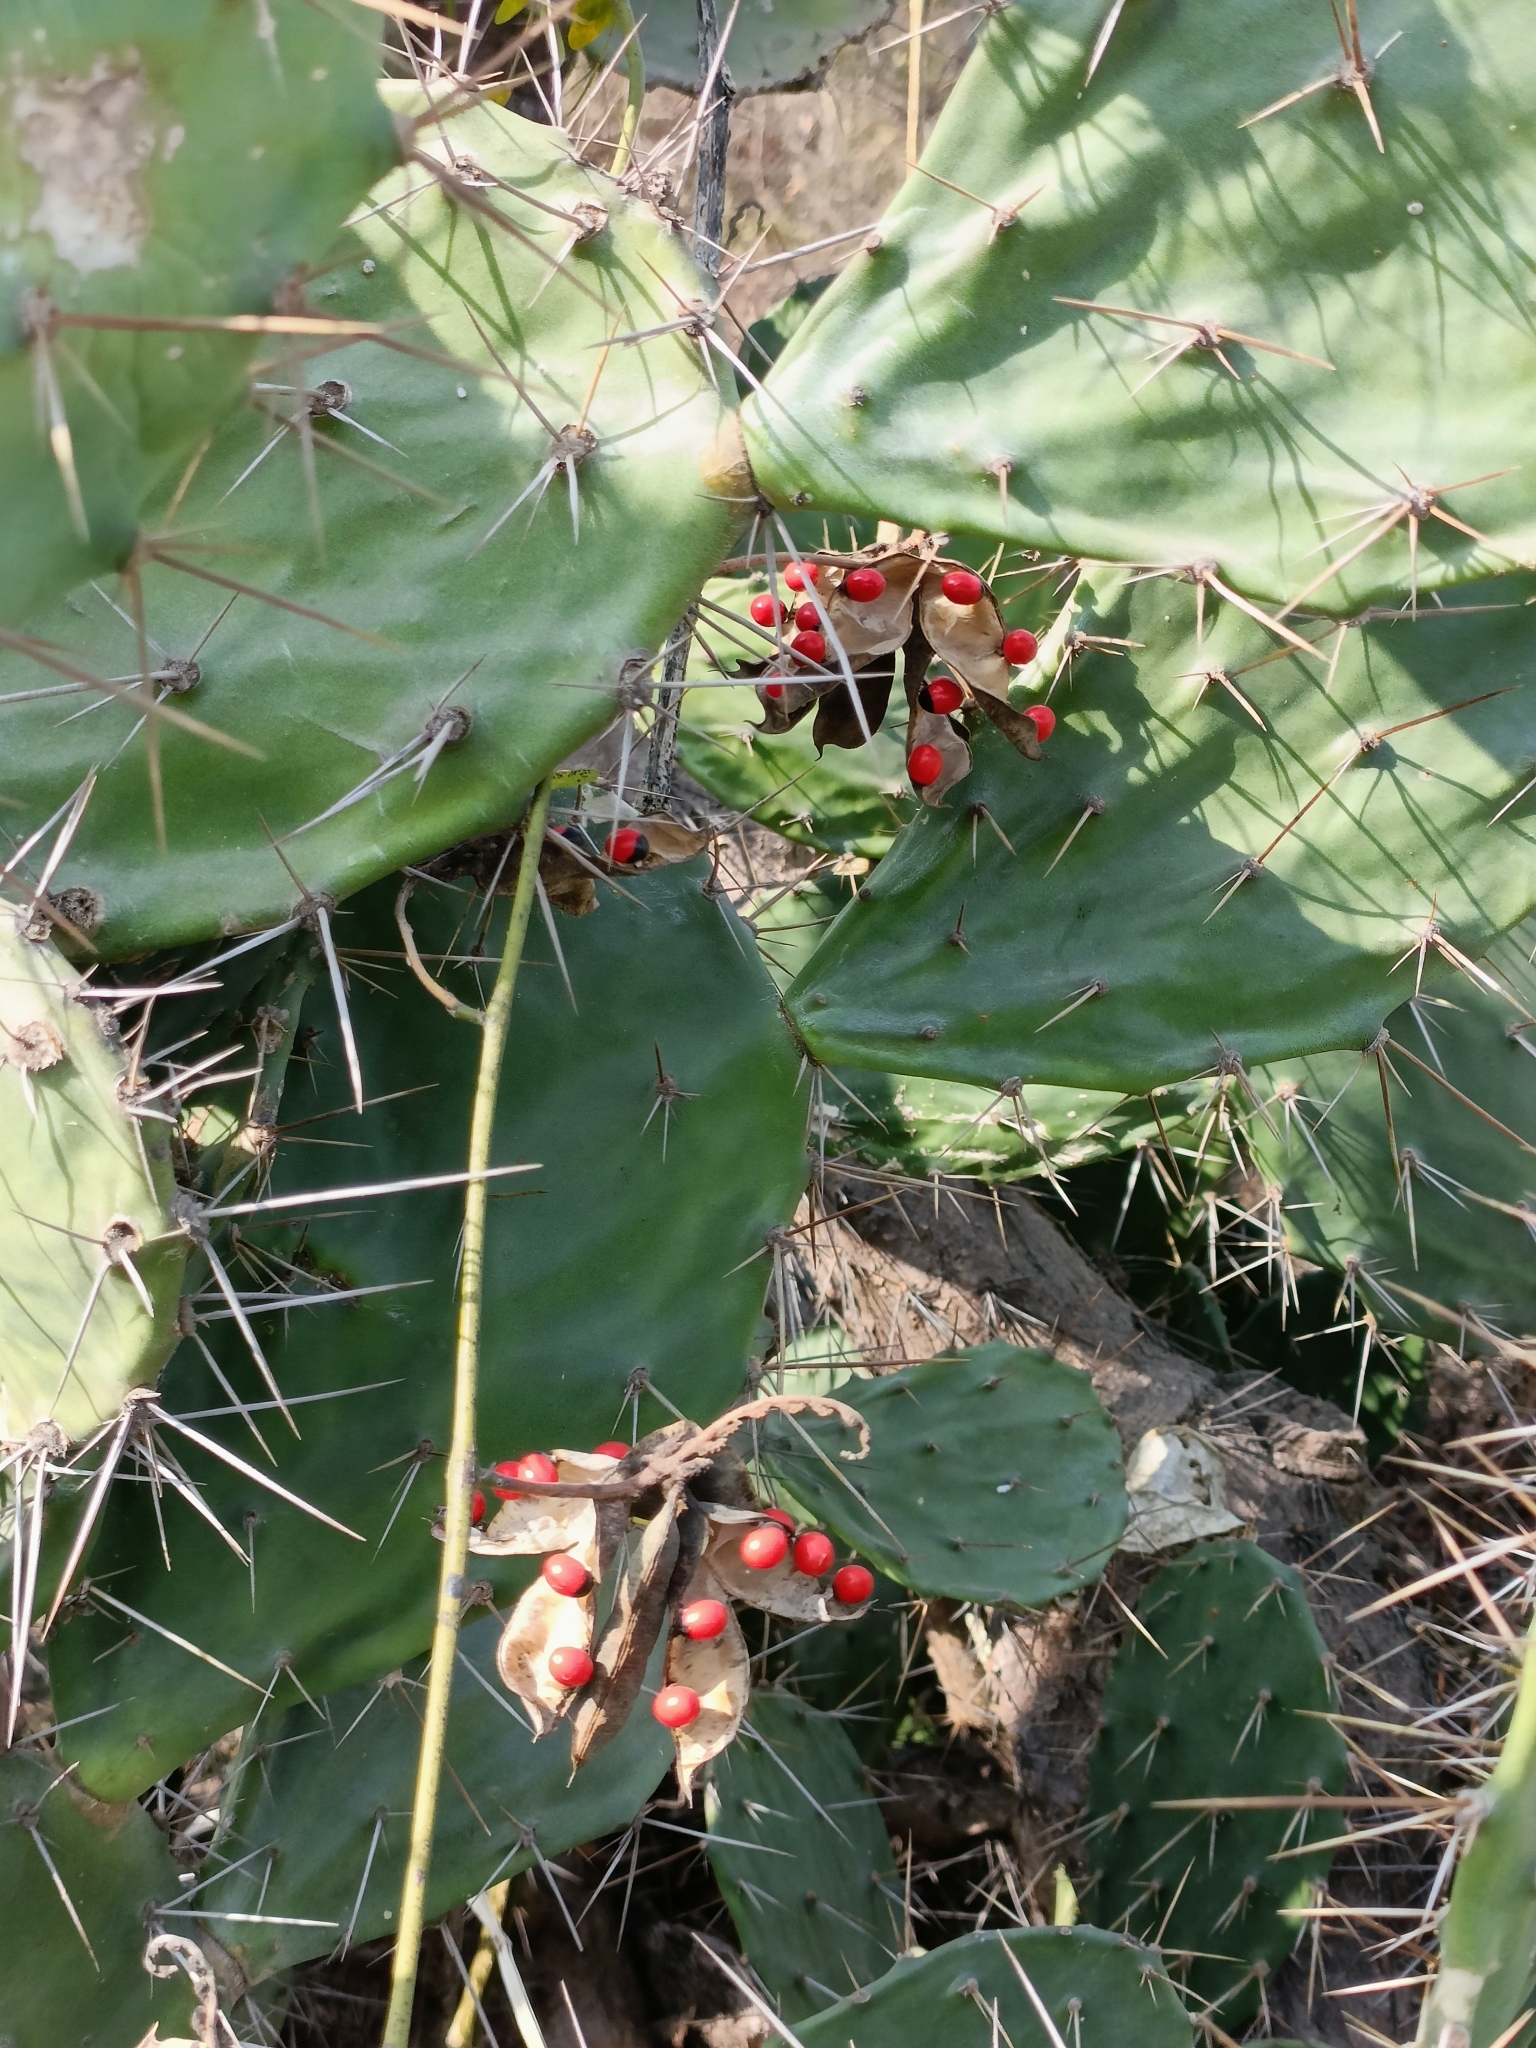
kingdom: Plantae
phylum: Tracheophyta
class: Magnoliopsida
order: Fabales
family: Fabaceae
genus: Abrus
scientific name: Abrus precatorius
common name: Rosarypea
